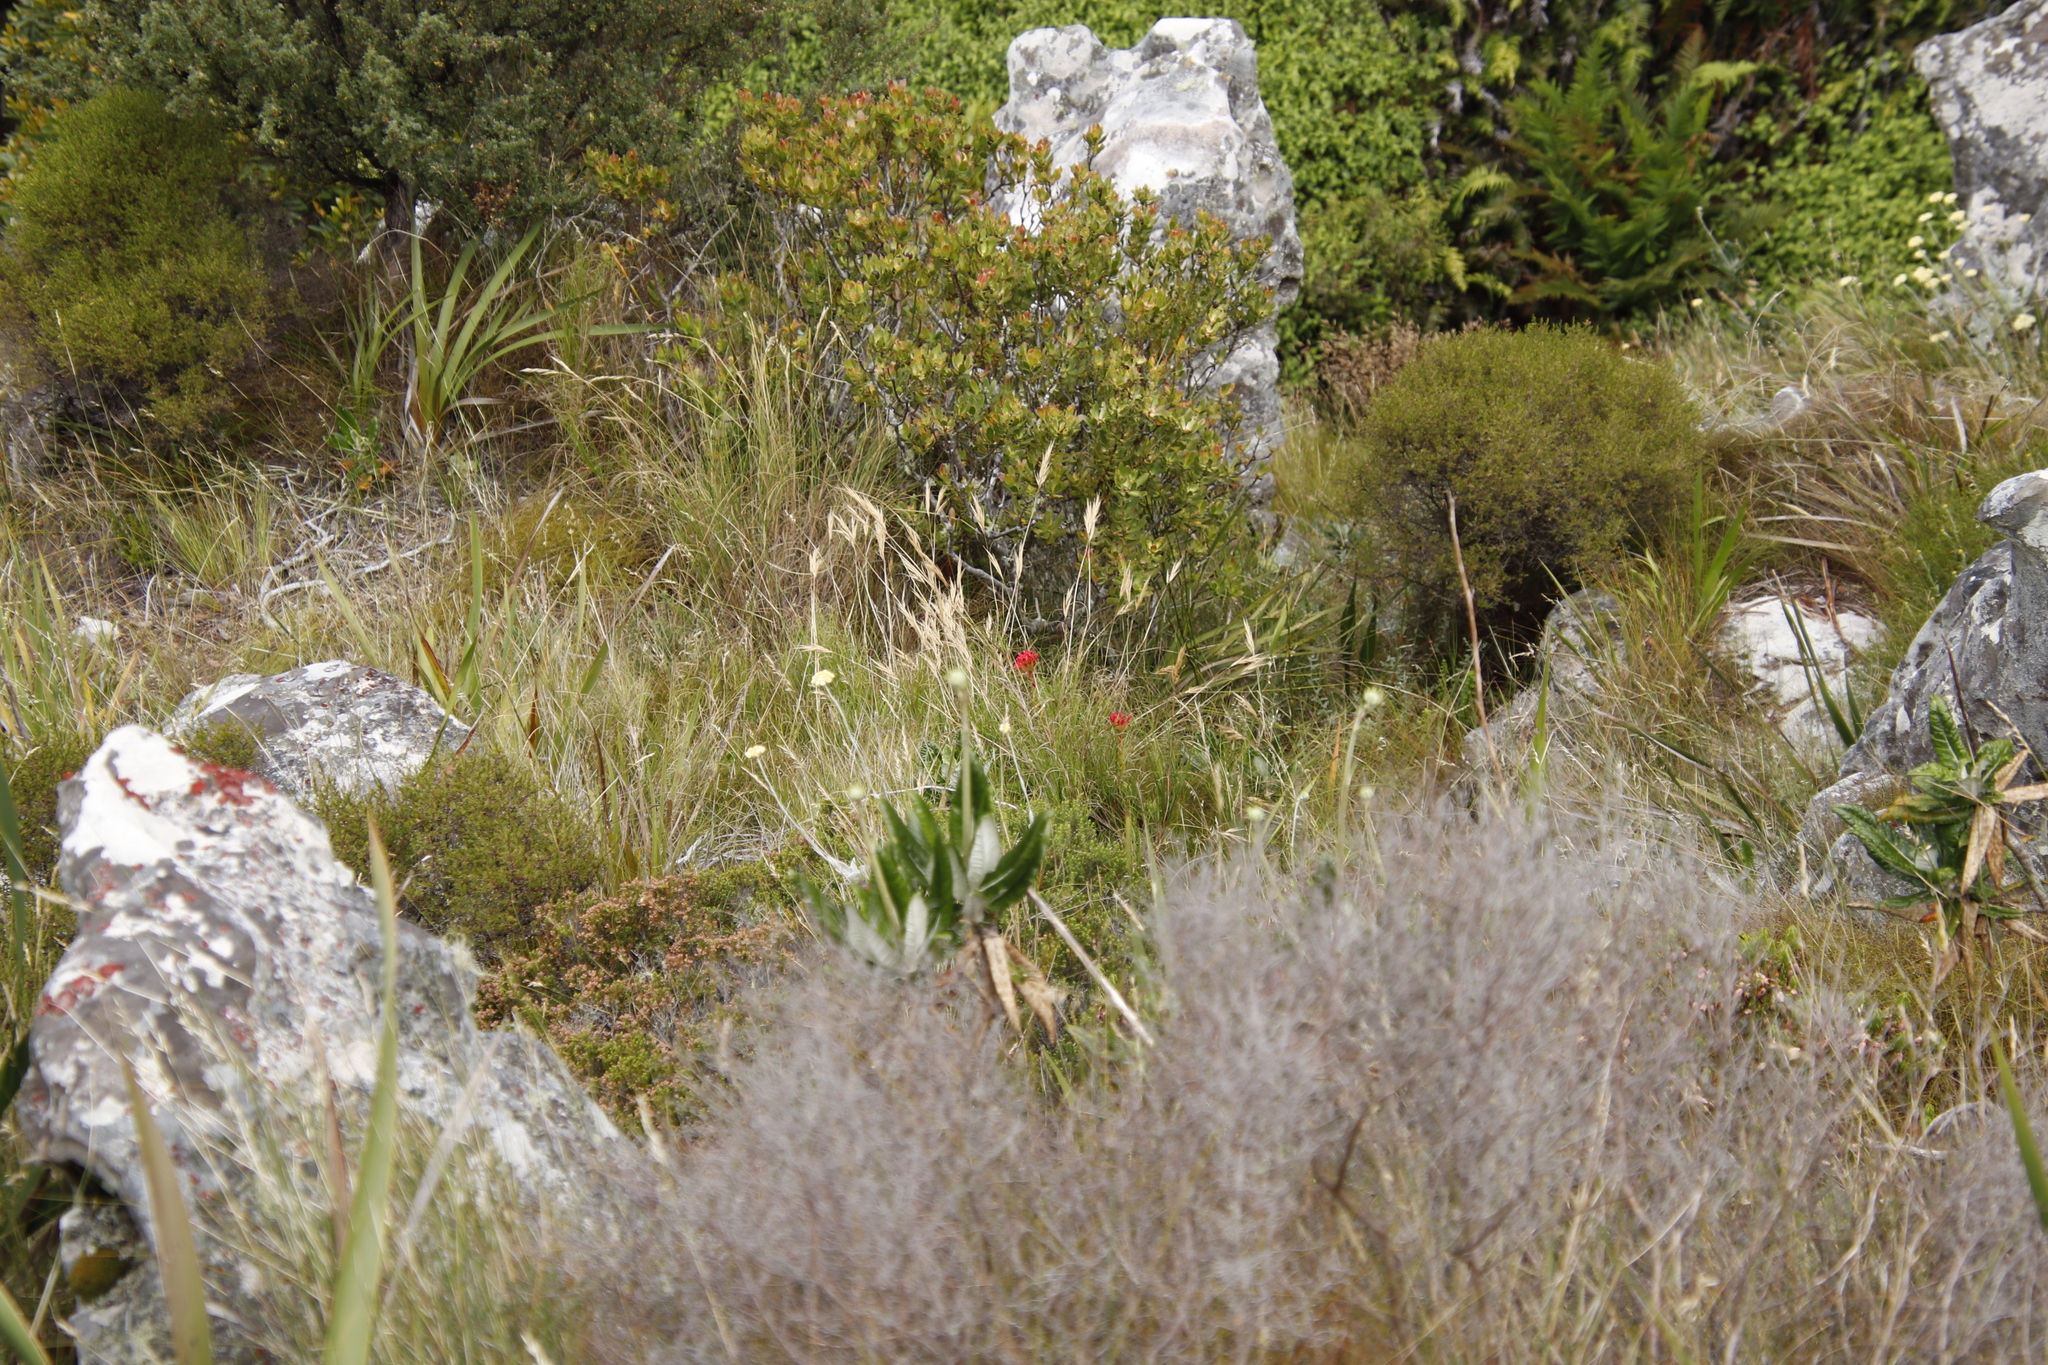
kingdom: Plantae
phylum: Tracheophyta
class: Magnoliopsida
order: Saxifragales
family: Crassulaceae
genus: Crassula
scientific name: Crassula coccinea
